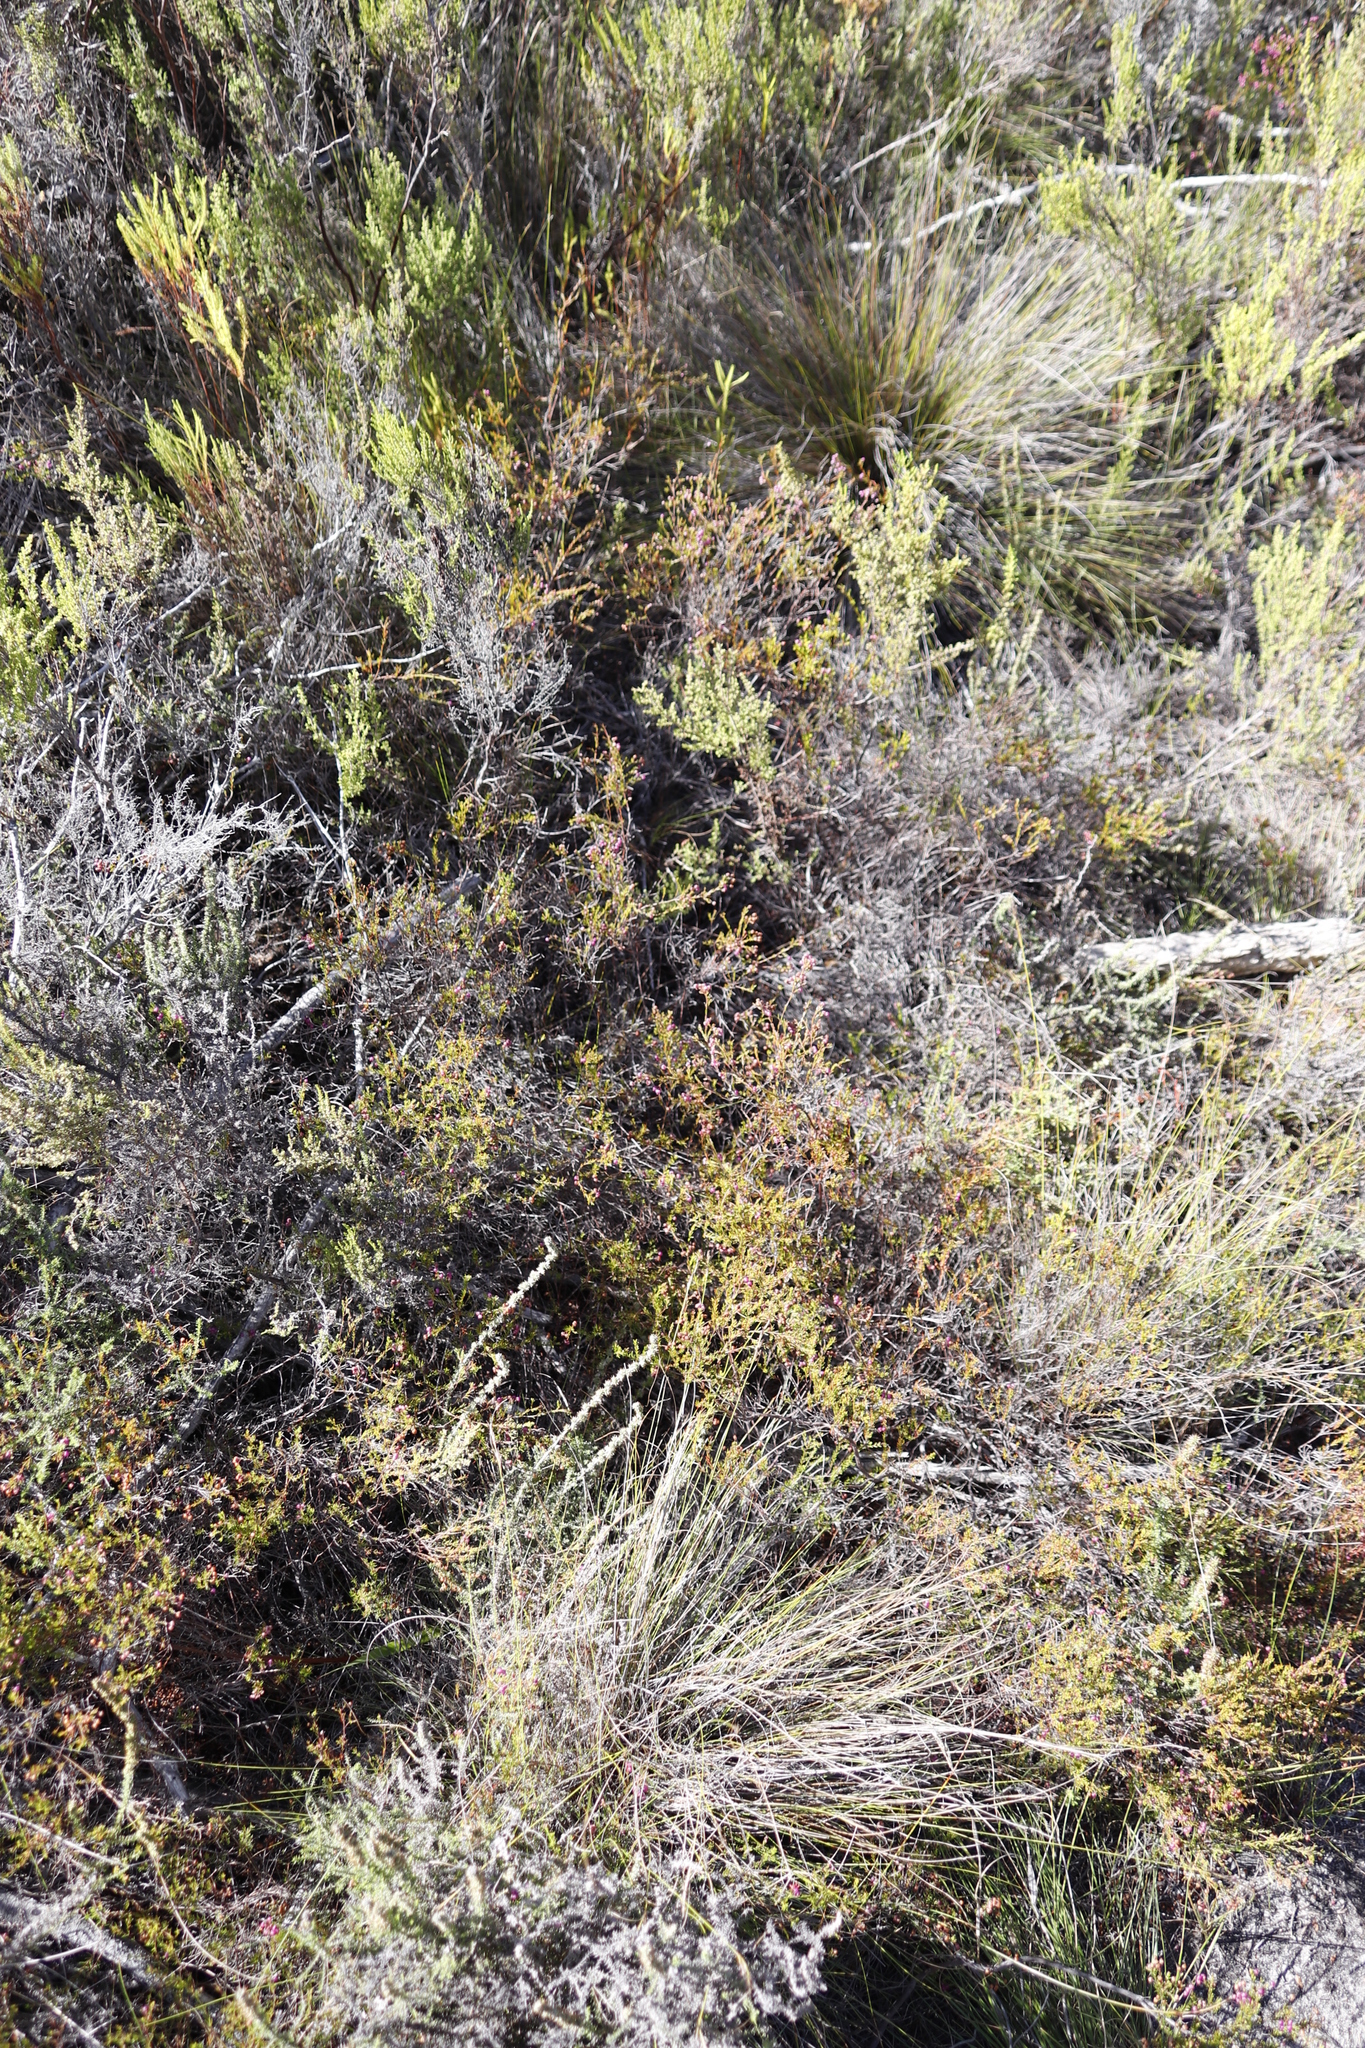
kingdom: Plantae
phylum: Tracheophyta
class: Magnoliopsida
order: Ericales
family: Ericaceae
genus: Erica
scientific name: Erica multumbellifera
